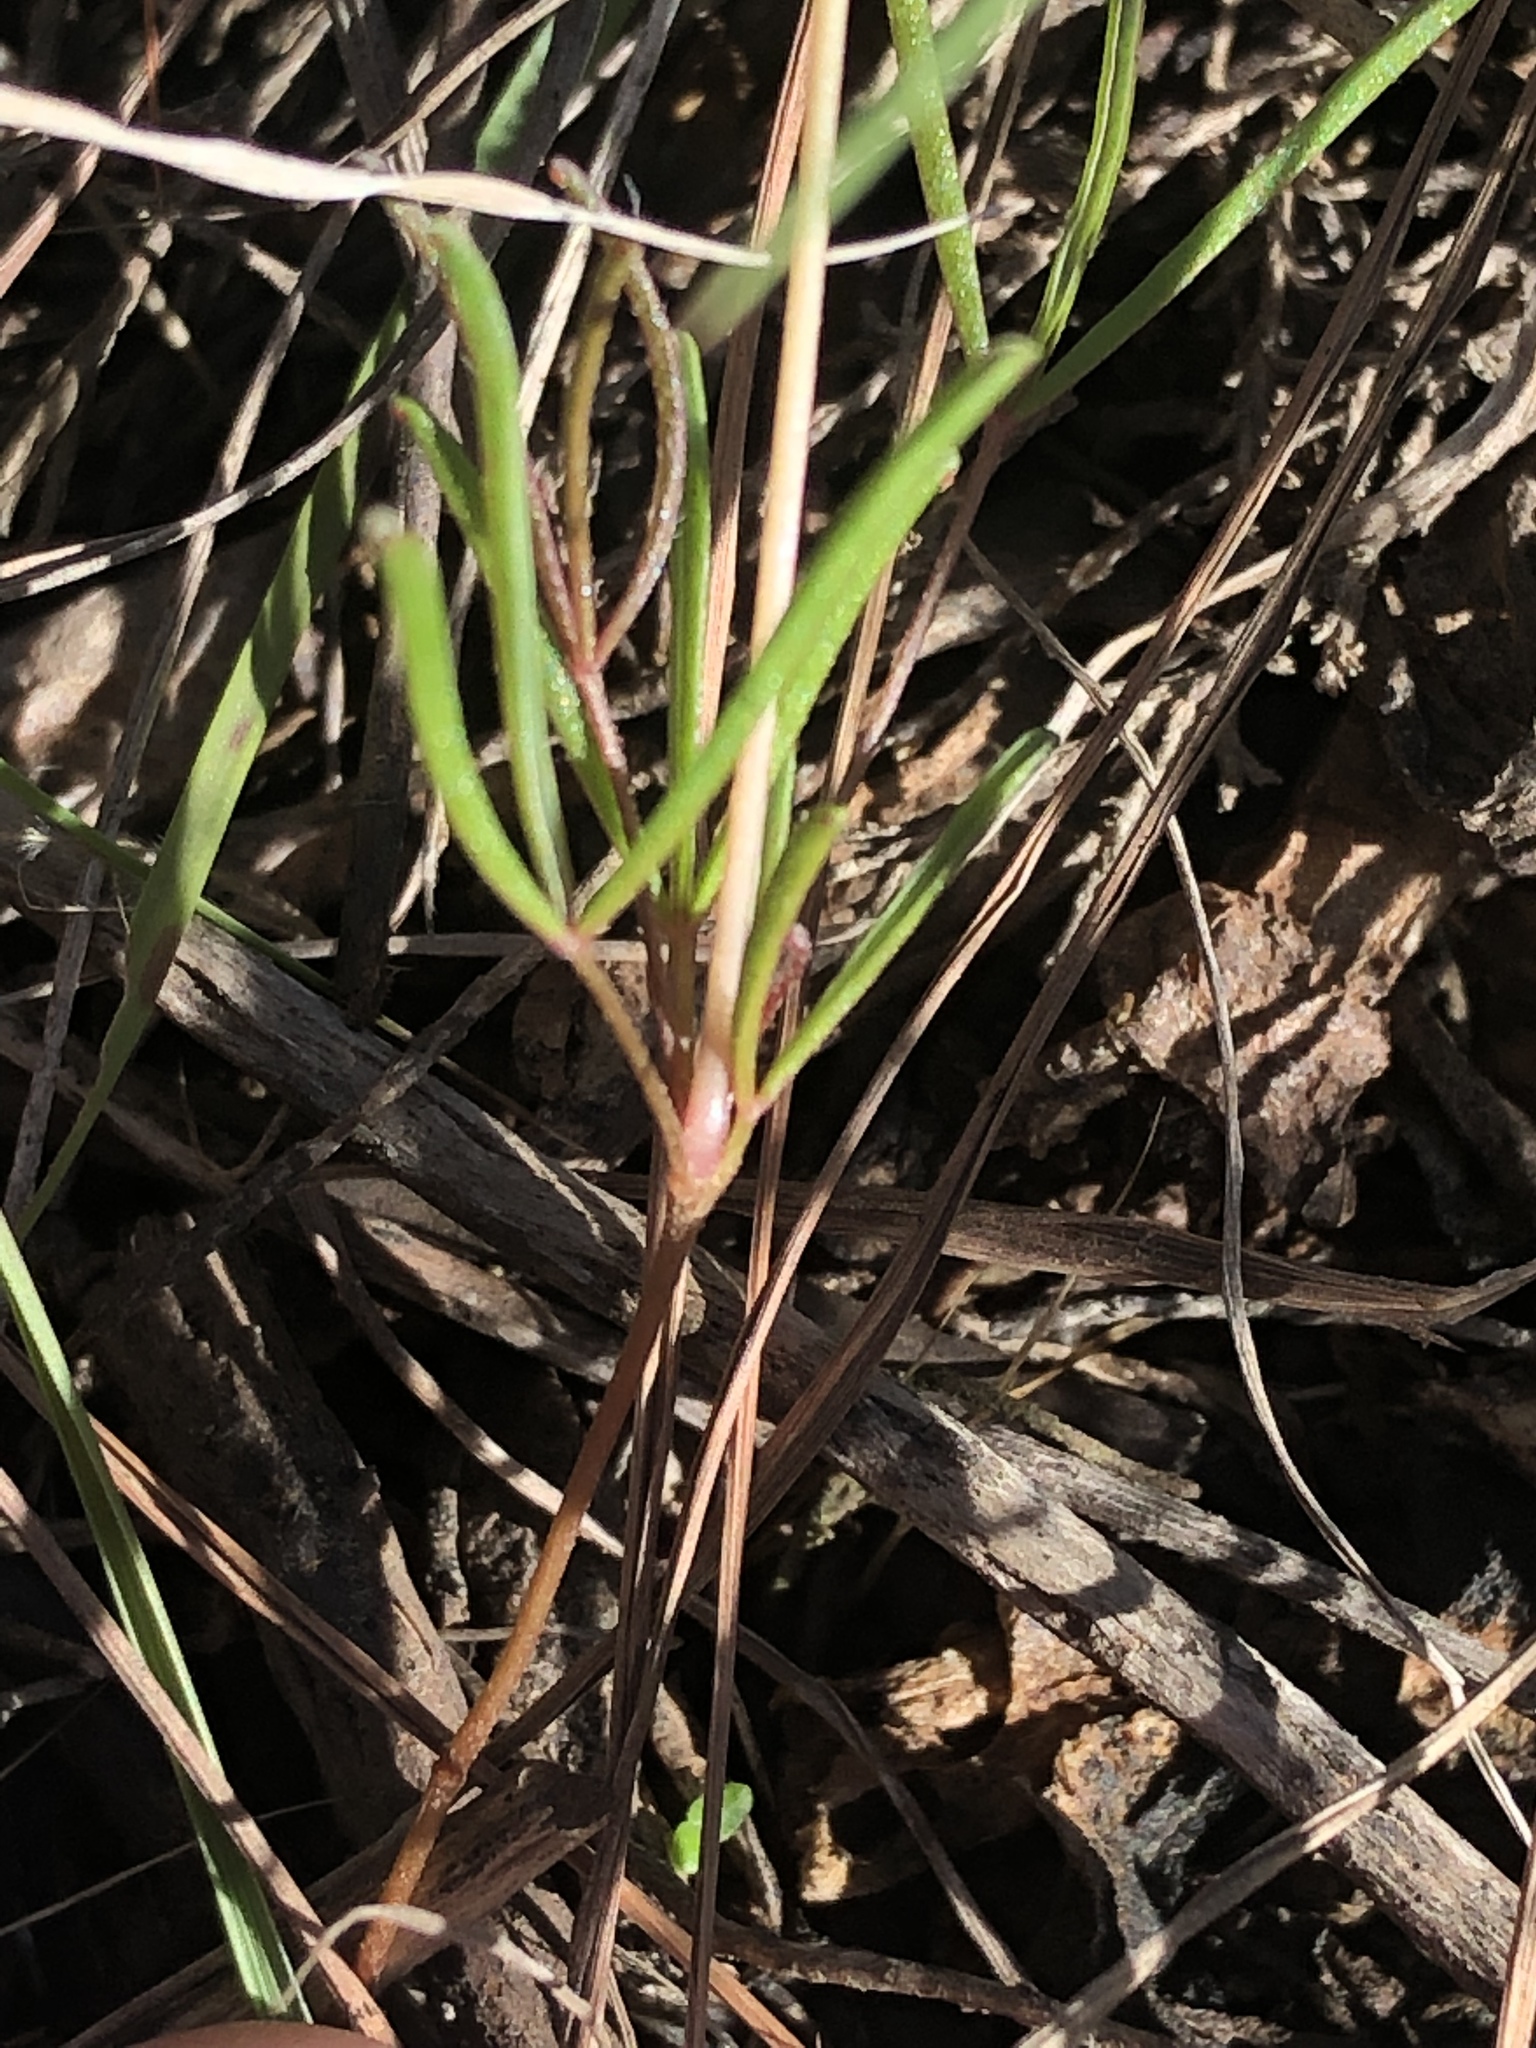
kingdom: Plantae
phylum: Tracheophyta
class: Magnoliopsida
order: Oxalidales
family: Oxalidaceae
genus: Oxalis
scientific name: Oxalis polyphylla
